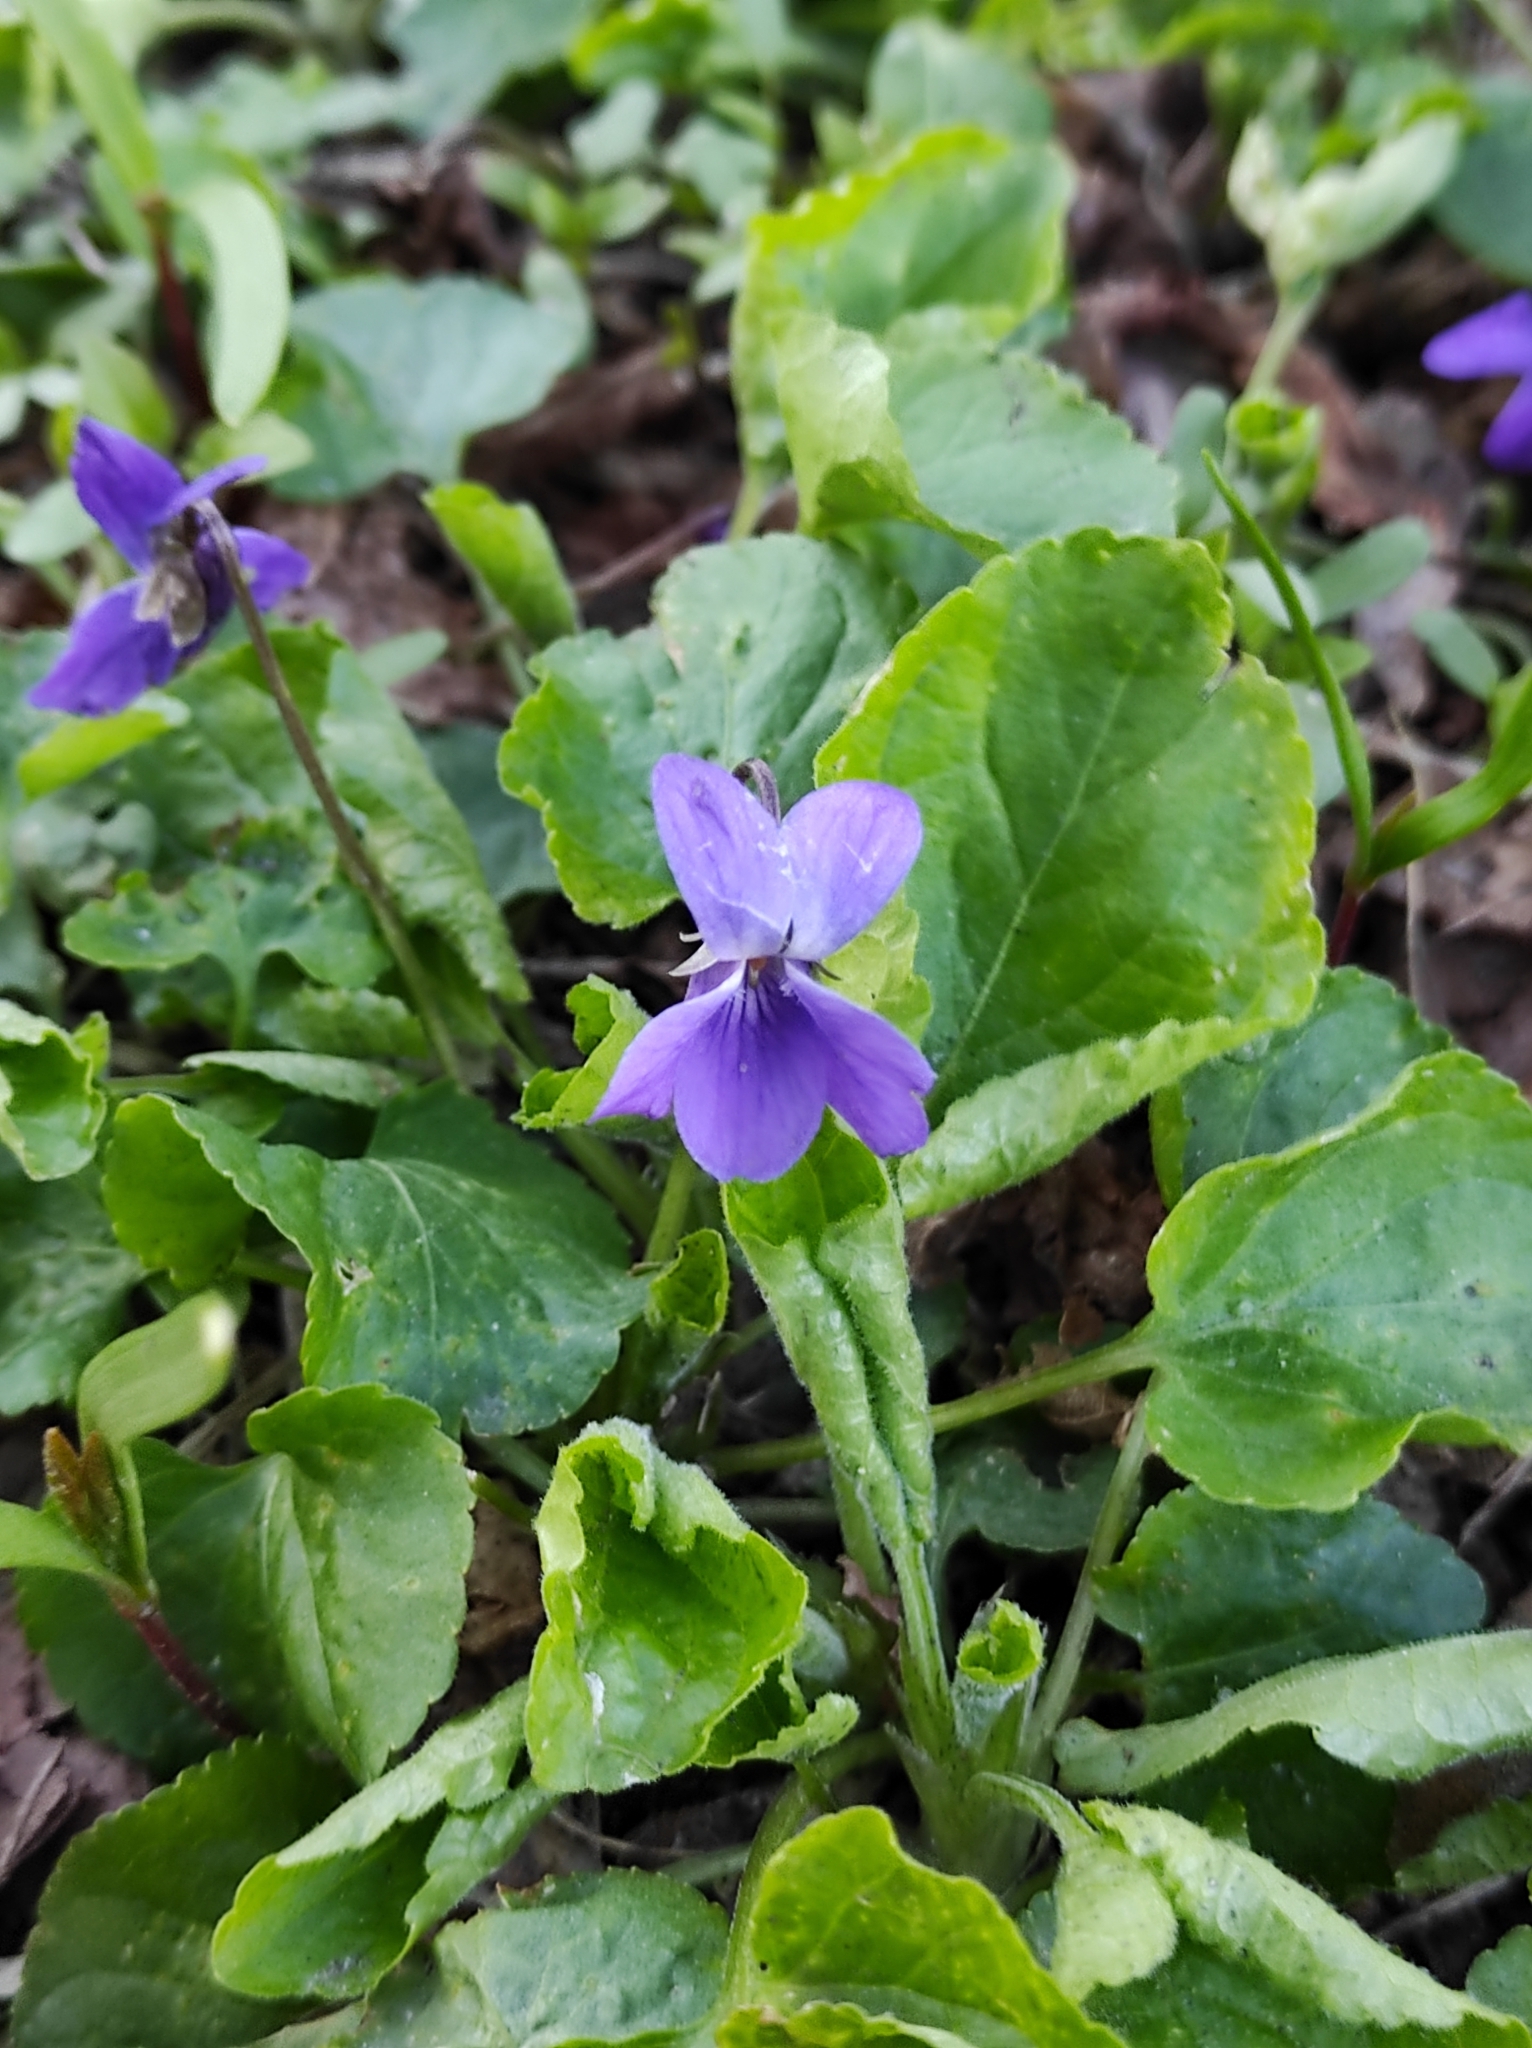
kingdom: Plantae
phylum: Tracheophyta
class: Magnoliopsida
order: Malpighiales
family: Violaceae
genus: Viola
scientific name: Viola odorata
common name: Sweet violet
